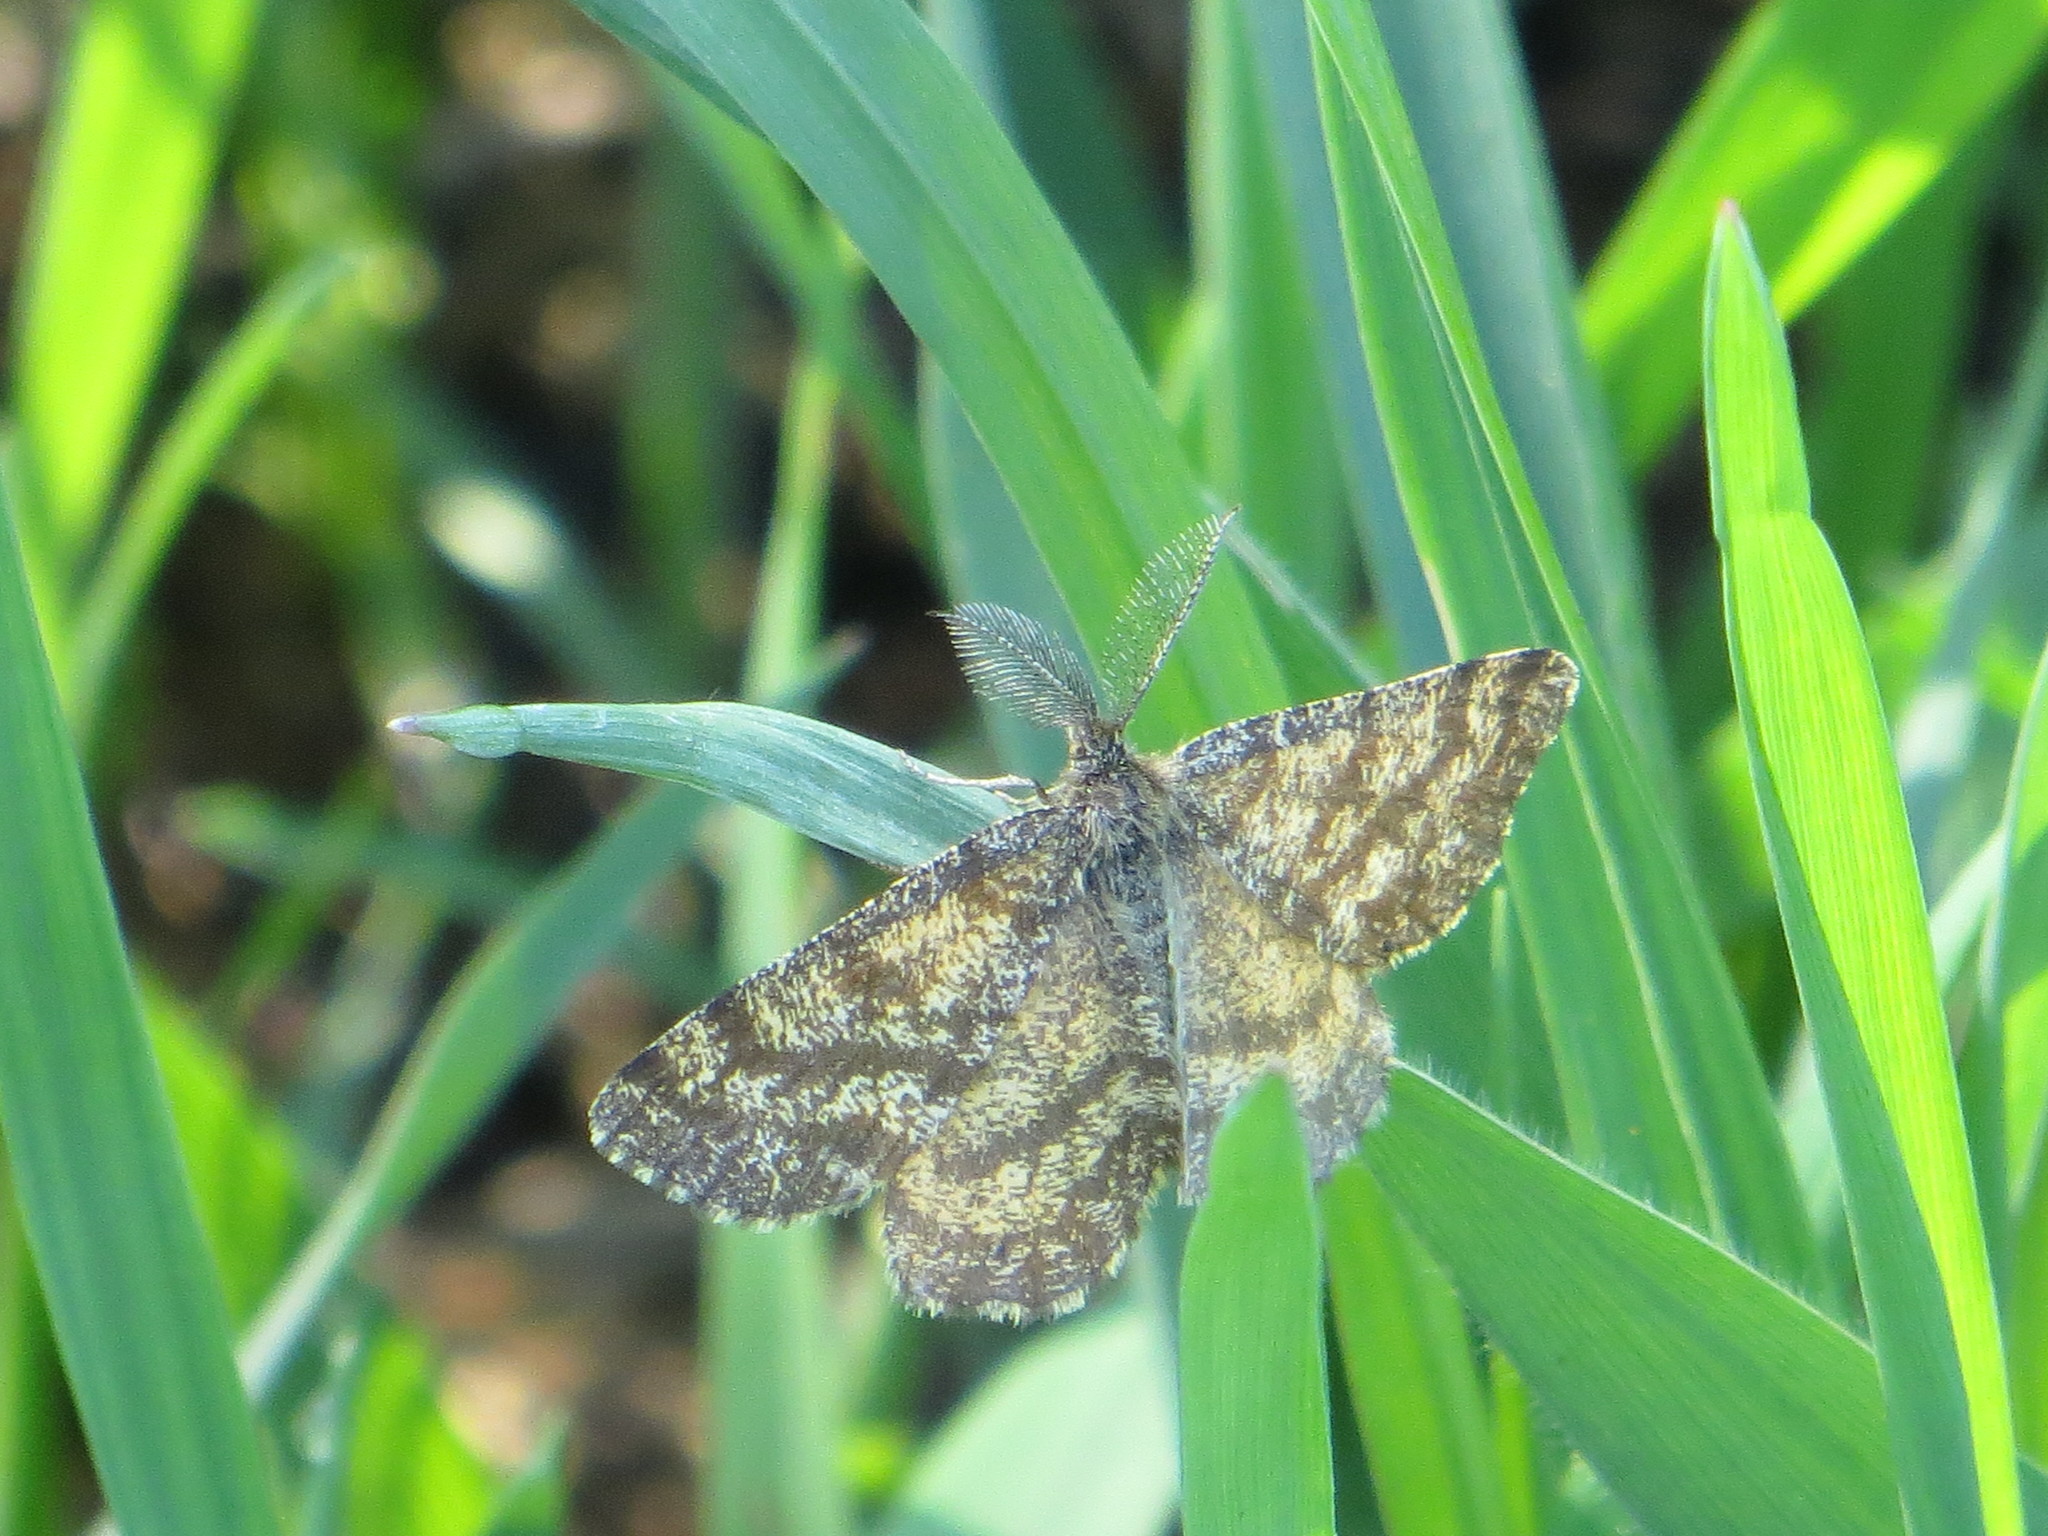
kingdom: Animalia
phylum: Arthropoda
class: Insecta
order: Lepidoptera
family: Geometridae
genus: Ematurga
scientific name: Ematurga atomaria
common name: Common heath
